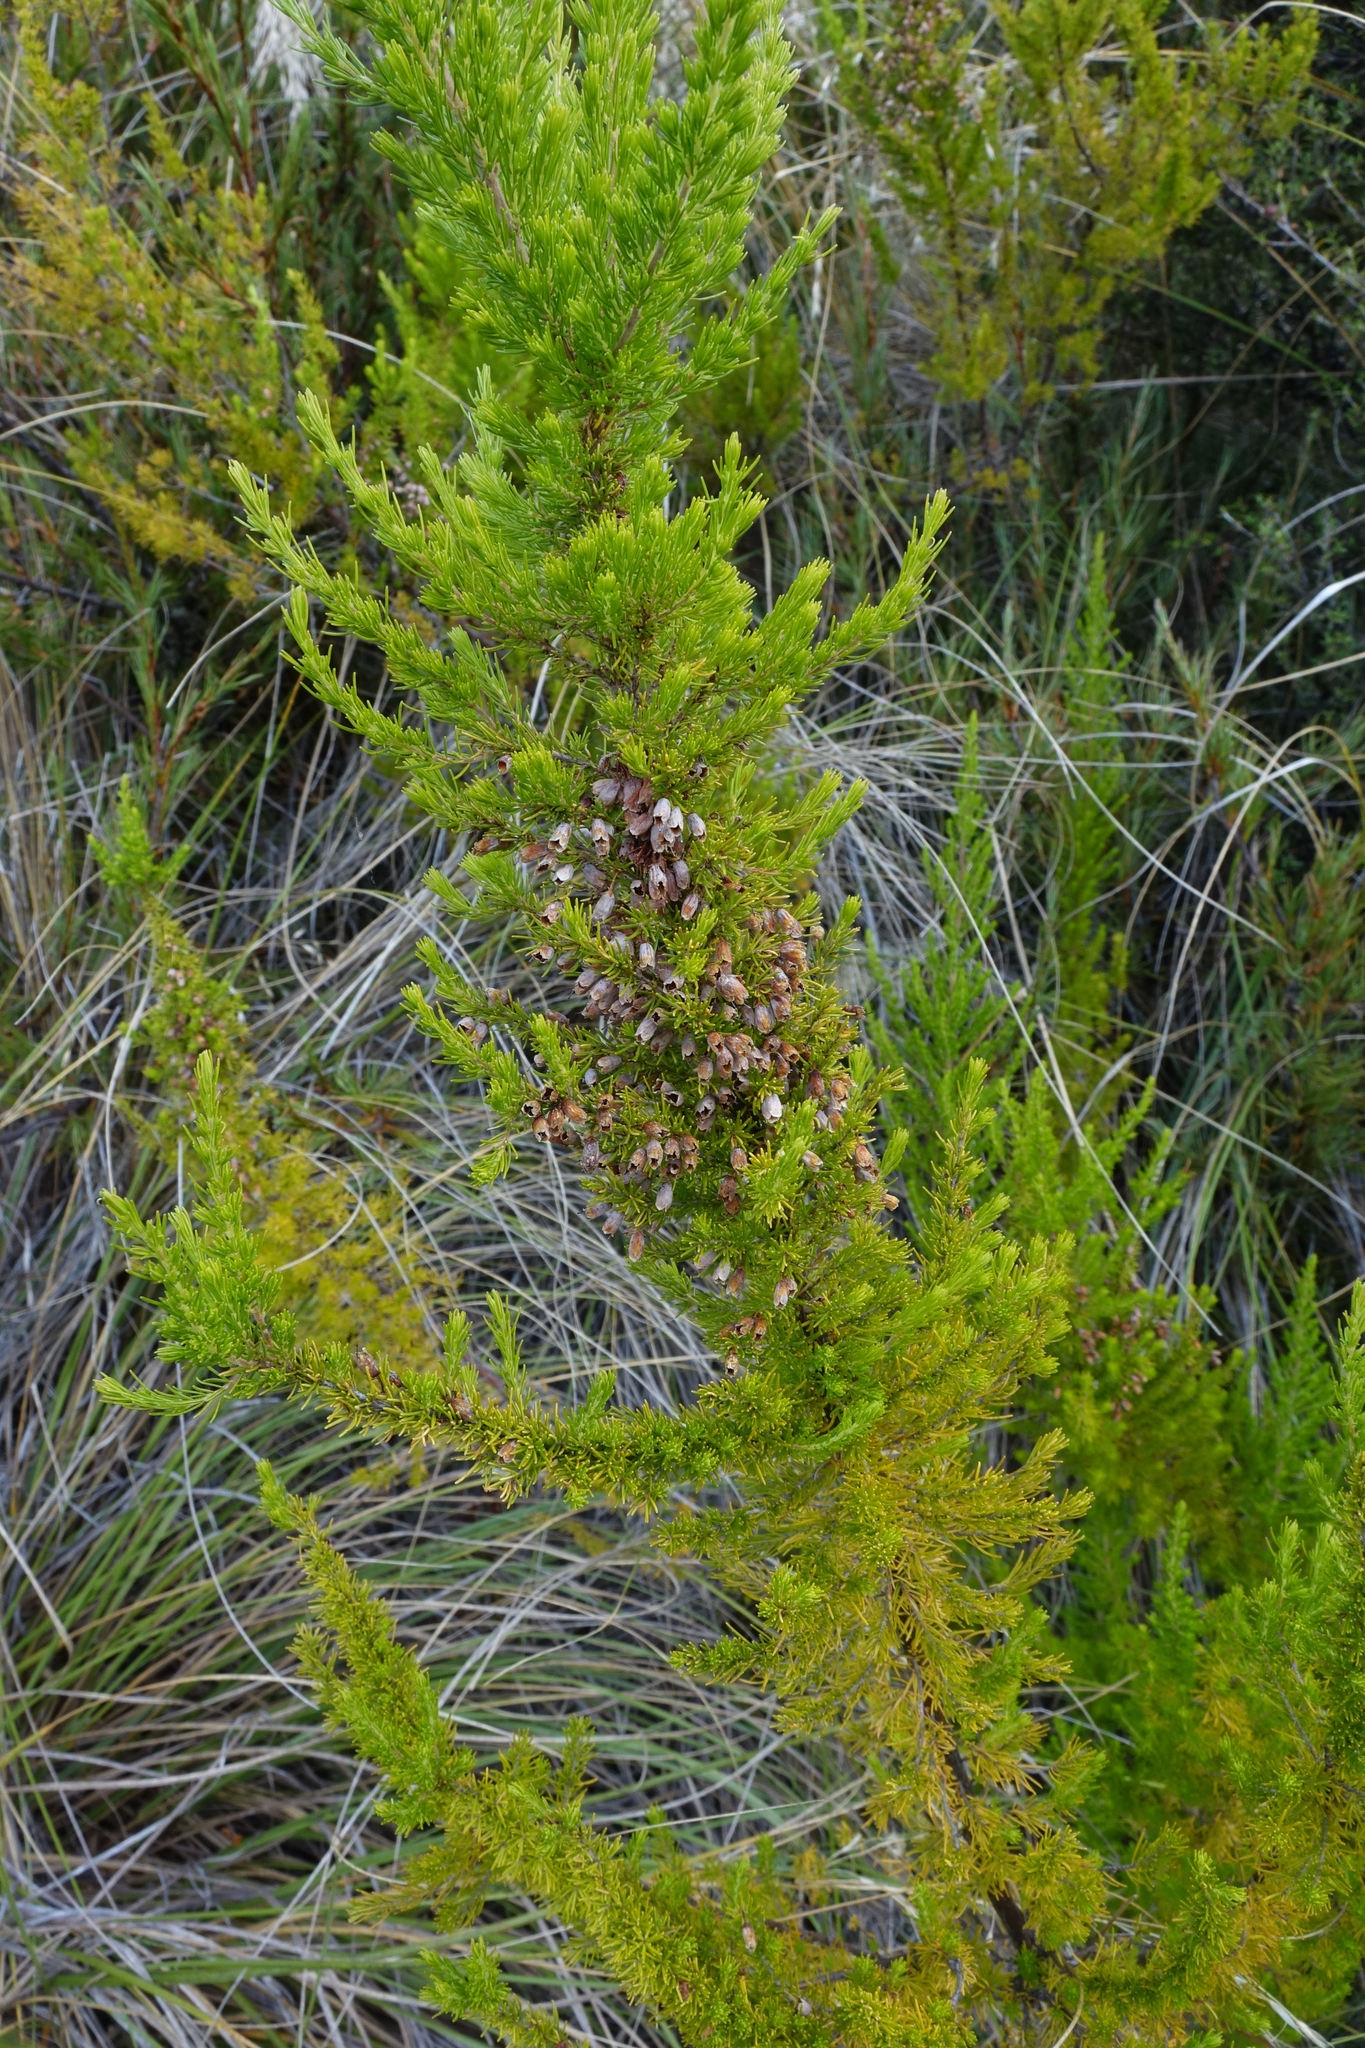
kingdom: Plantae
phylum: Tracheophyta
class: Magnoliopsida
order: Ericales
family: Ericaceae
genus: Erica
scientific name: Erica lusitanica
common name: Spanish heath
